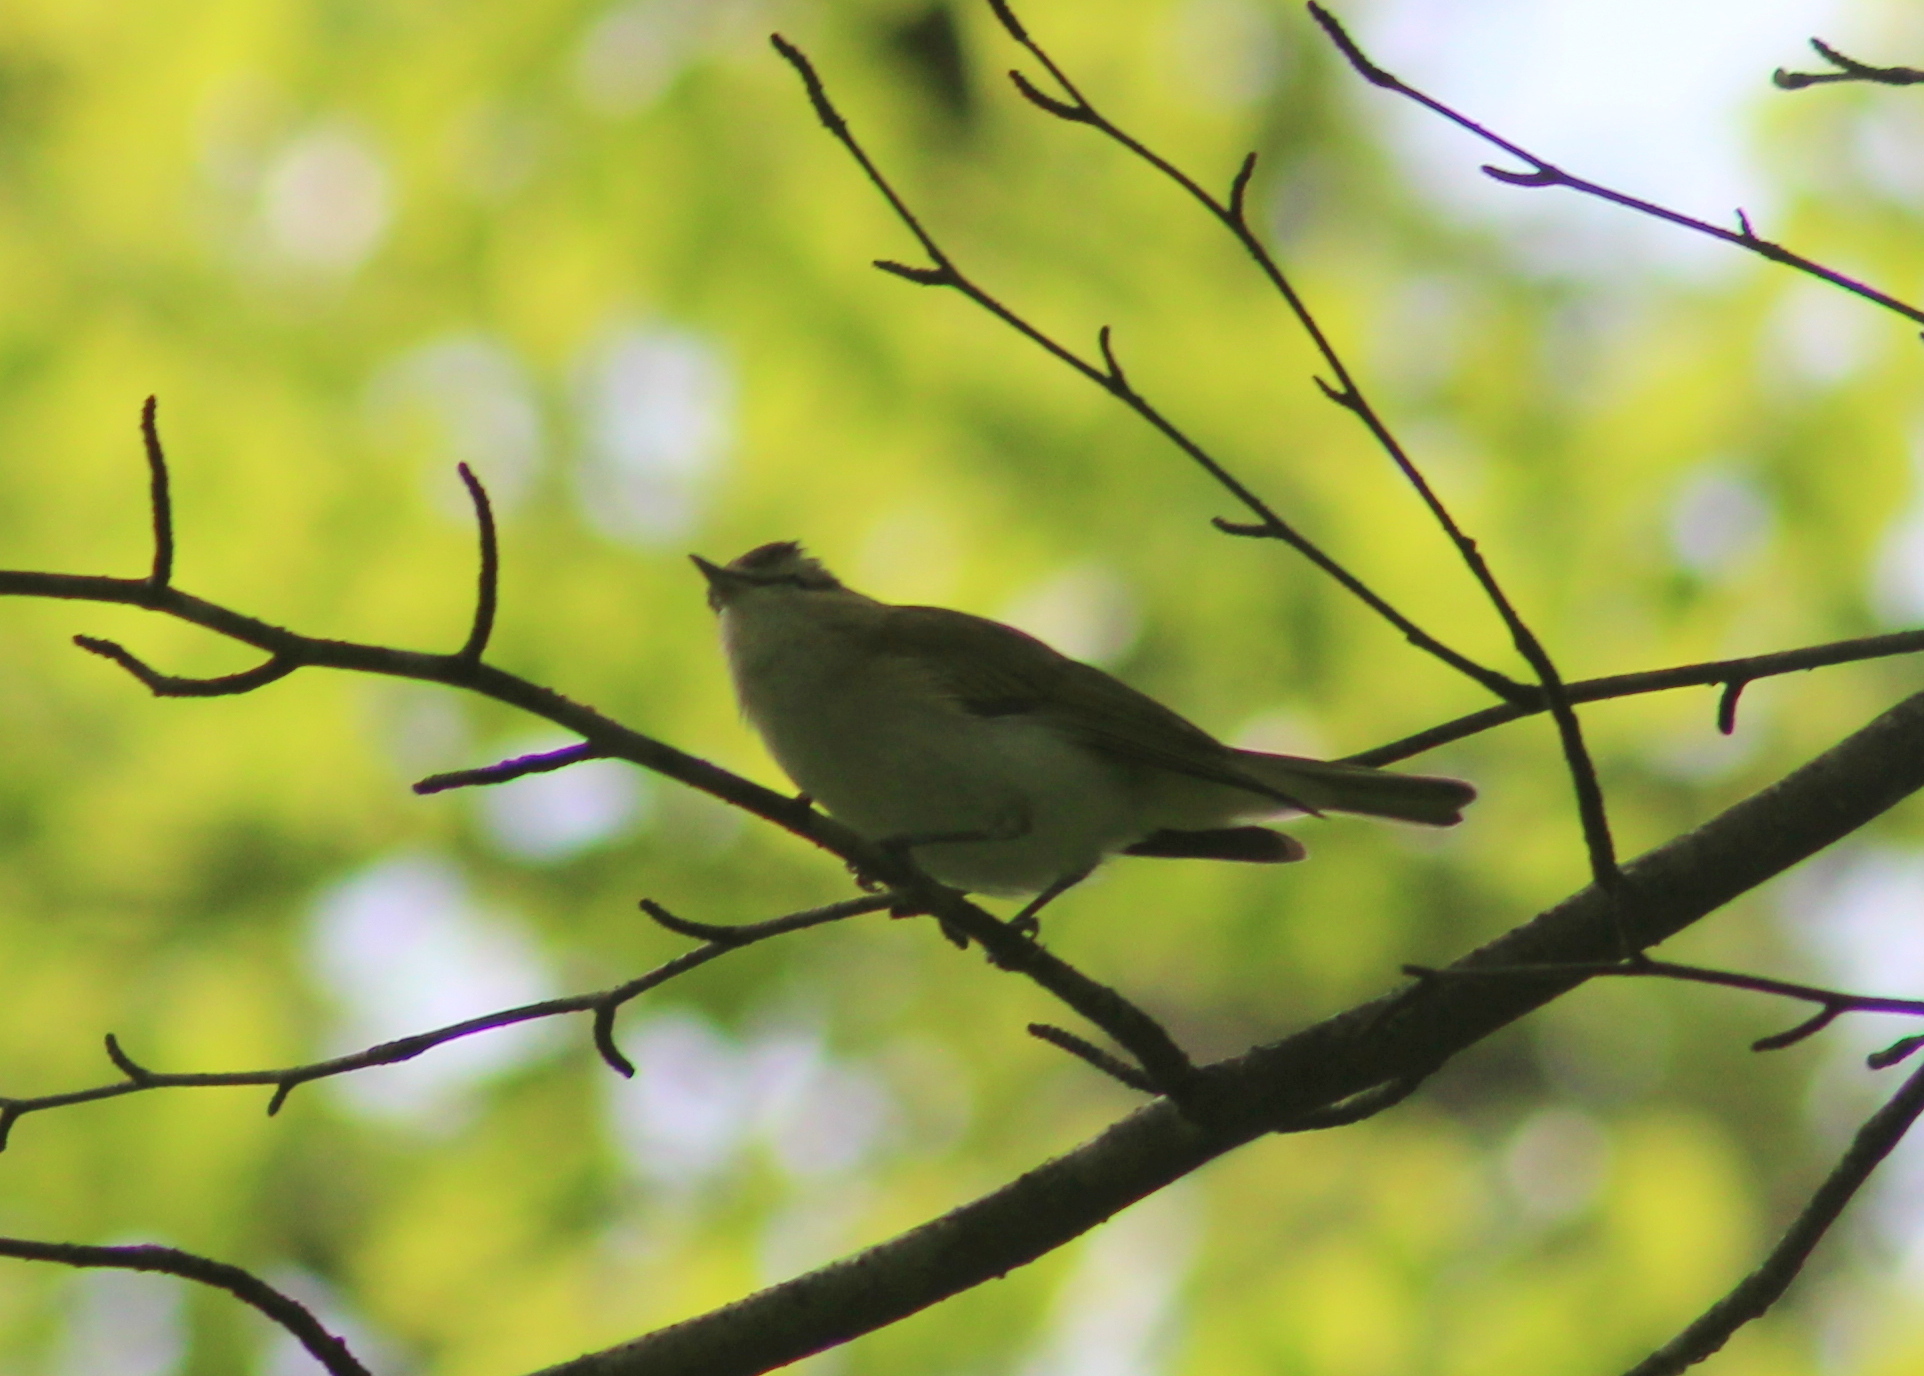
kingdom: Animalia
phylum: Chordata
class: Aves
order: Passeriformes
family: Vireonidae
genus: Vireo
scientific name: Vireo olivaceus
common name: Red-eyed vireo
